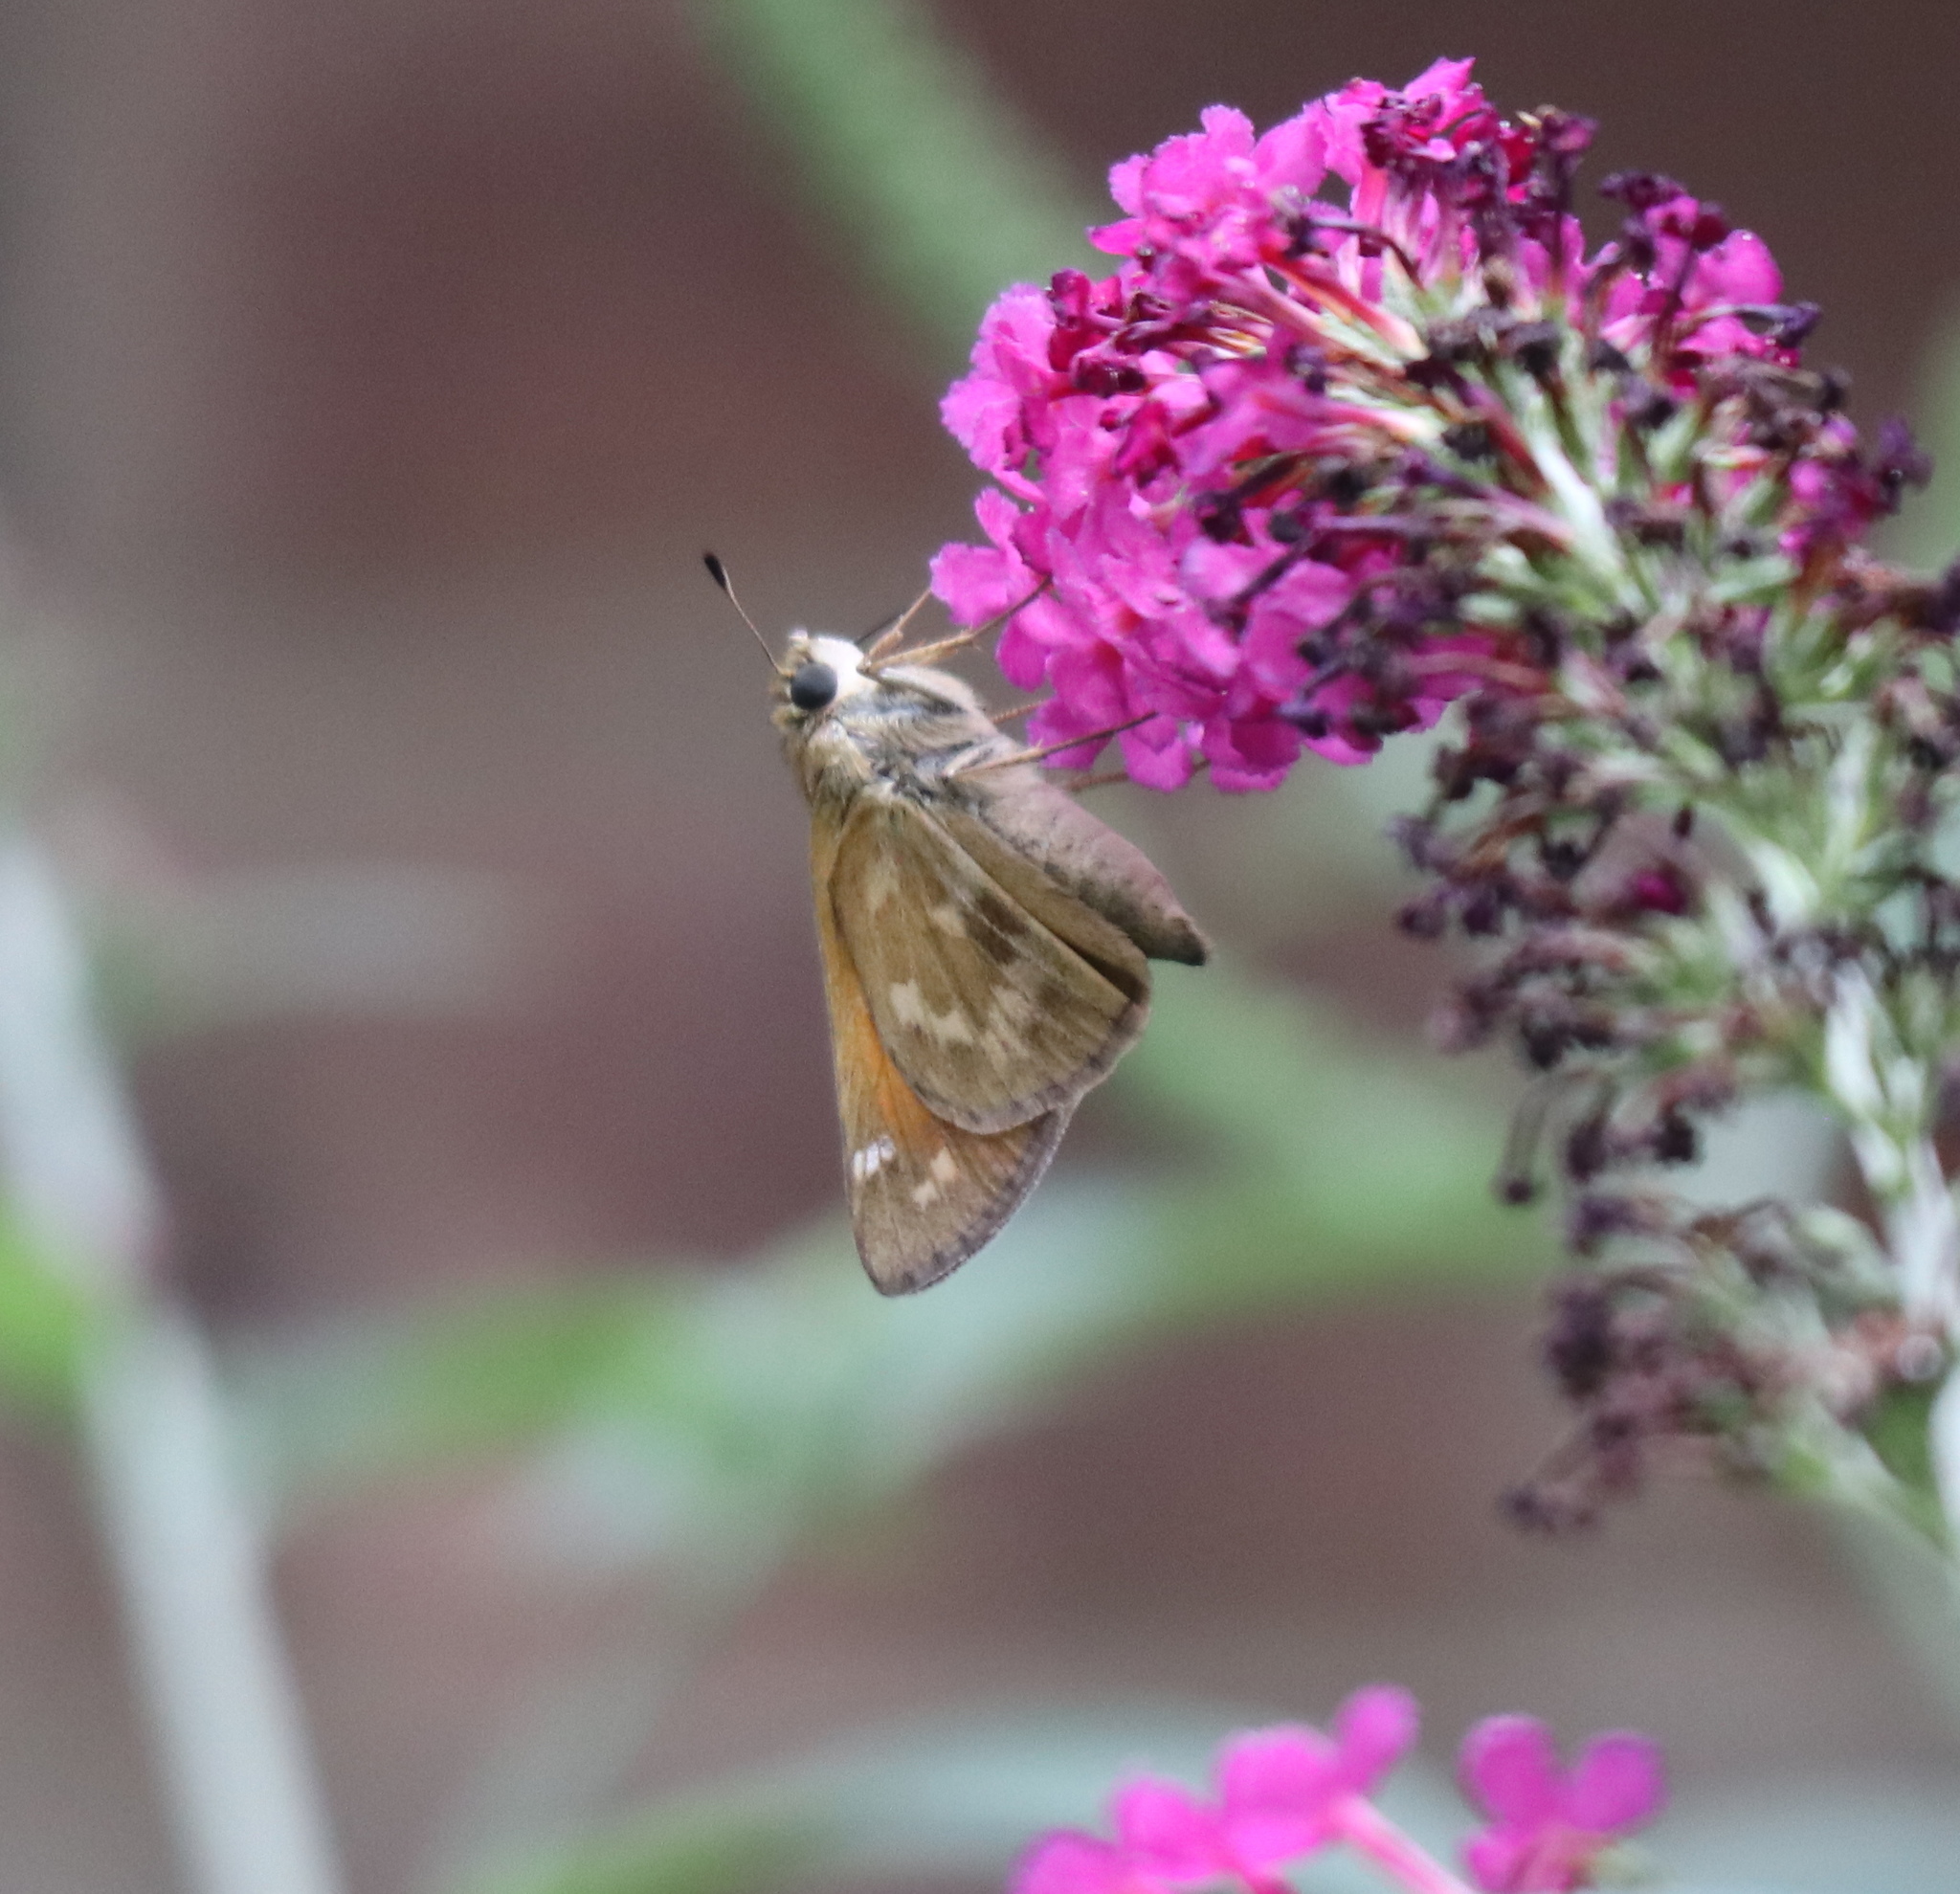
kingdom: Animalia
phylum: Arthropoda
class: Insecta
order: Lepidoptera
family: Hesperiidae
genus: Atalopedes
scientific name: Atalopedes
